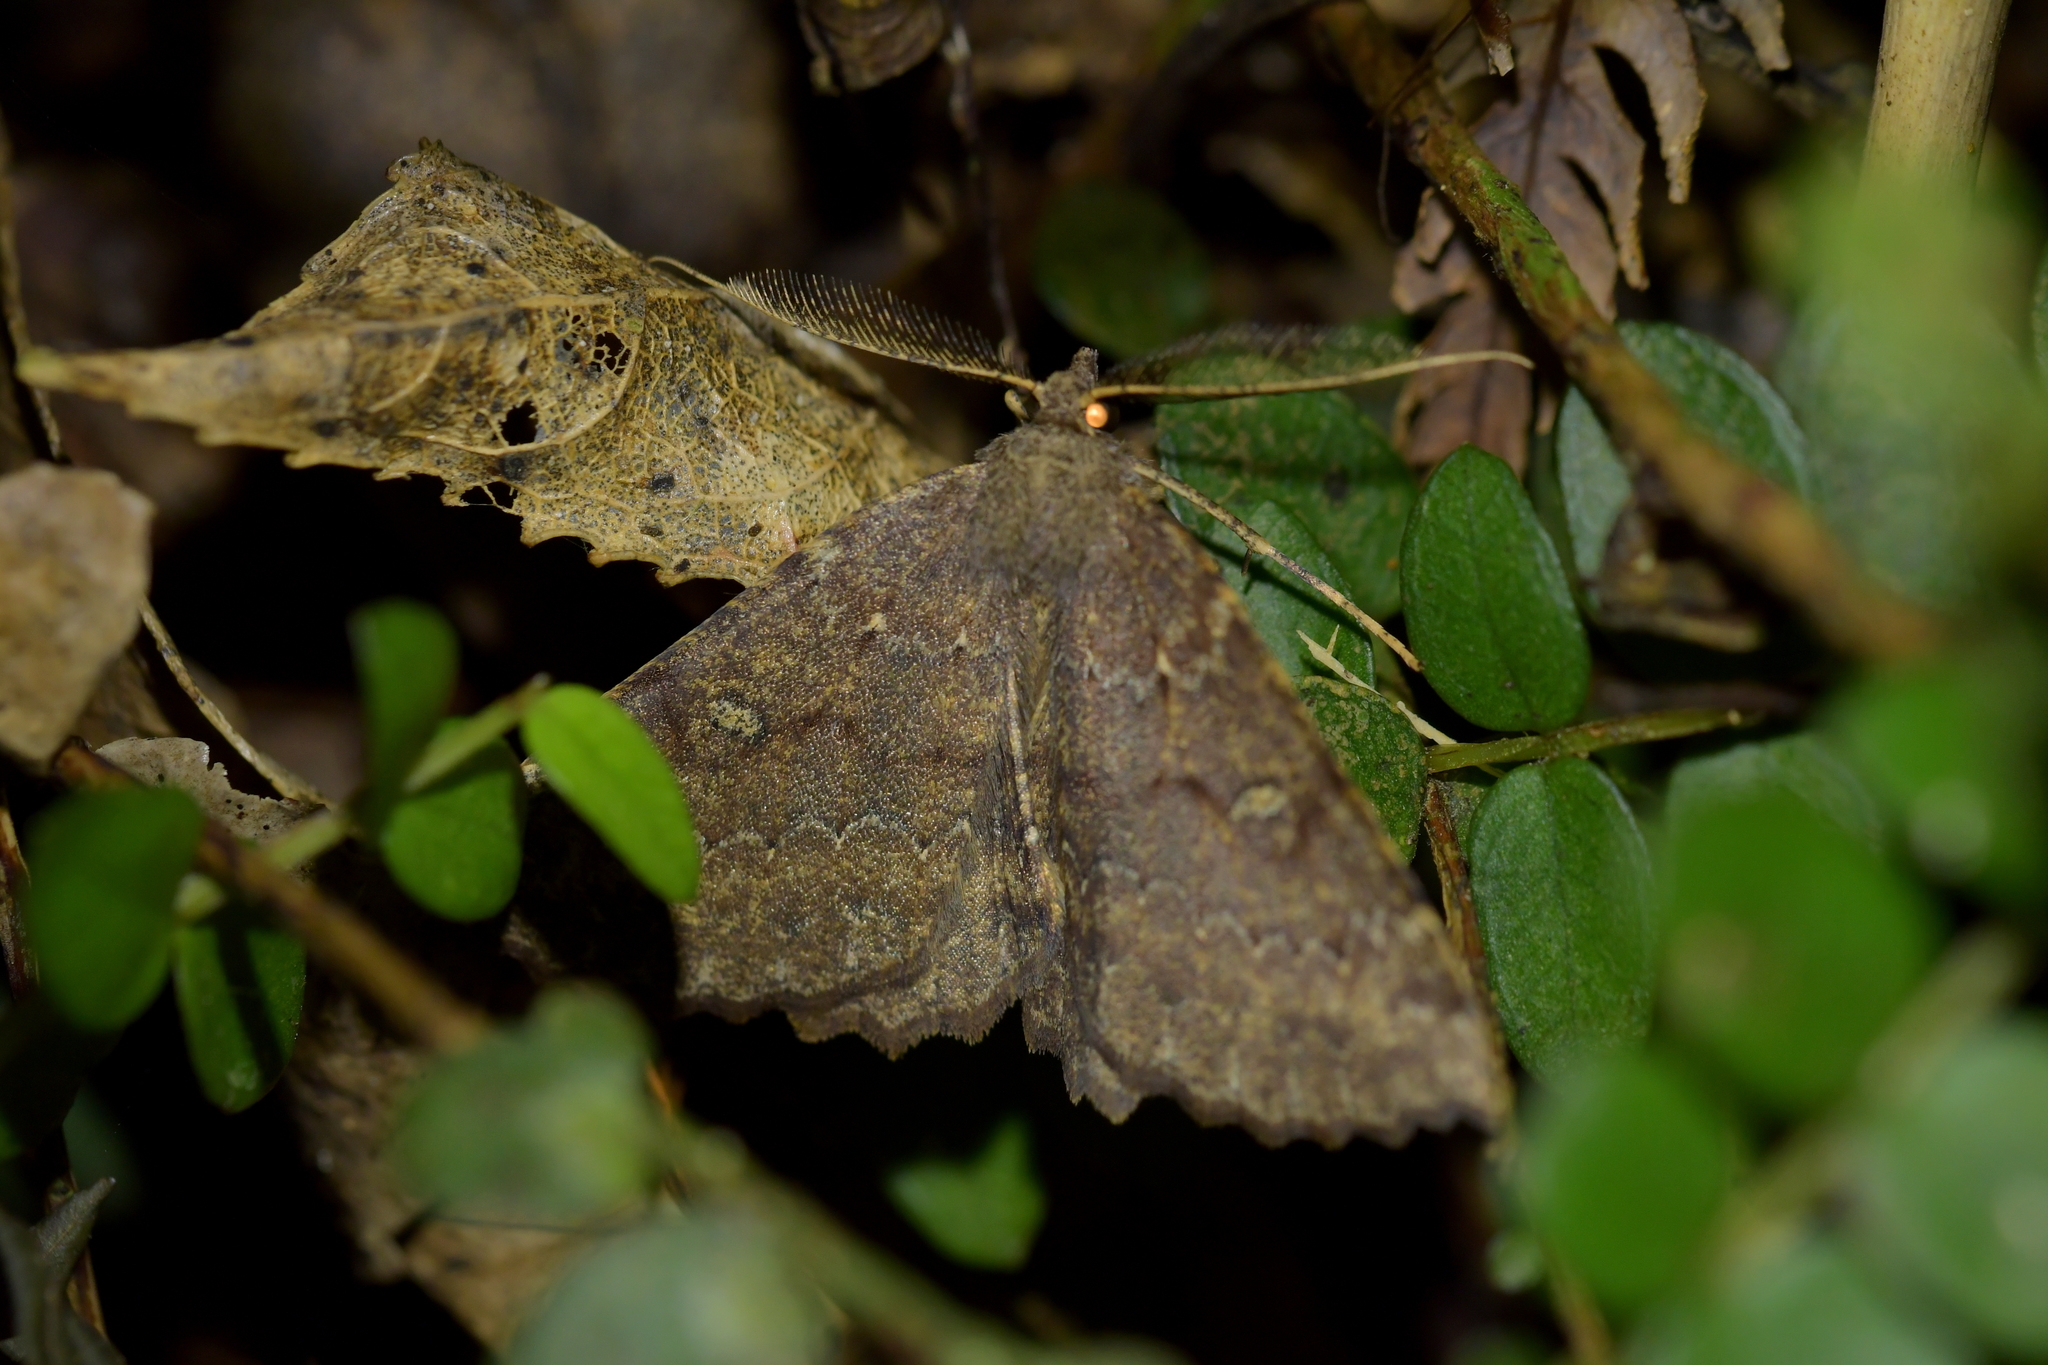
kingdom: Animalia
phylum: Arthropoda
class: Insecta
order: Lepidoptera
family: Geometridae
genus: Cleora
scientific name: Cleora scriptaria
